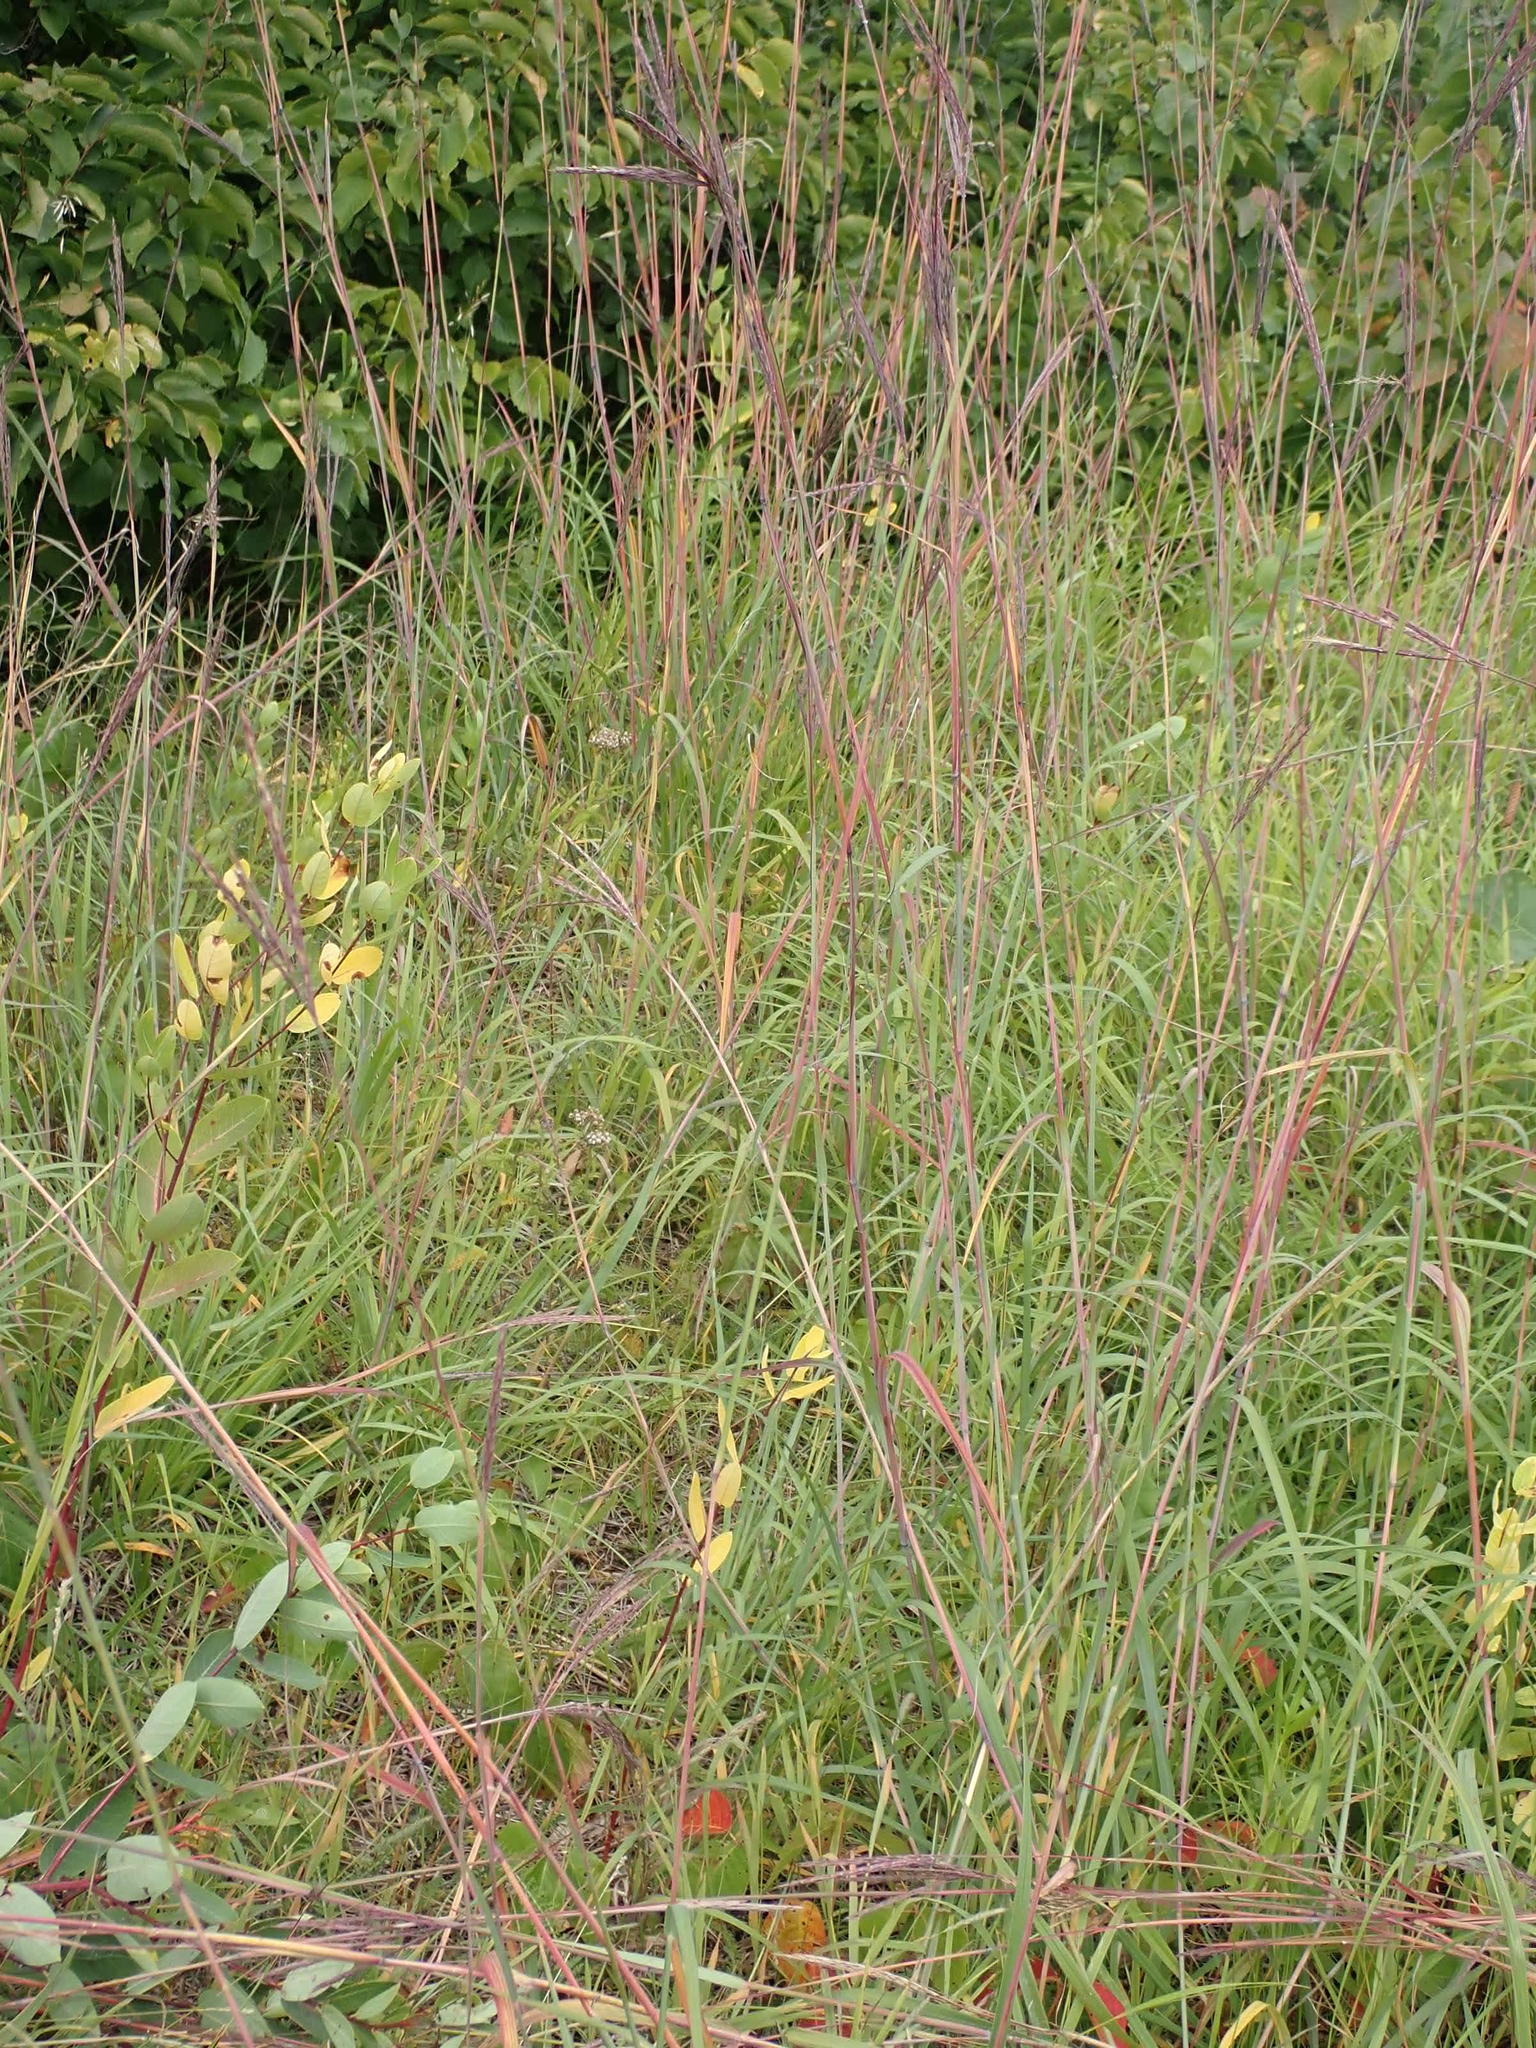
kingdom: Plantae
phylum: Tracheophyta
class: Liliopsida
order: Poales
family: Poaceae
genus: Andropogon
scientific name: Andropogon gerardi
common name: Big bluestem
